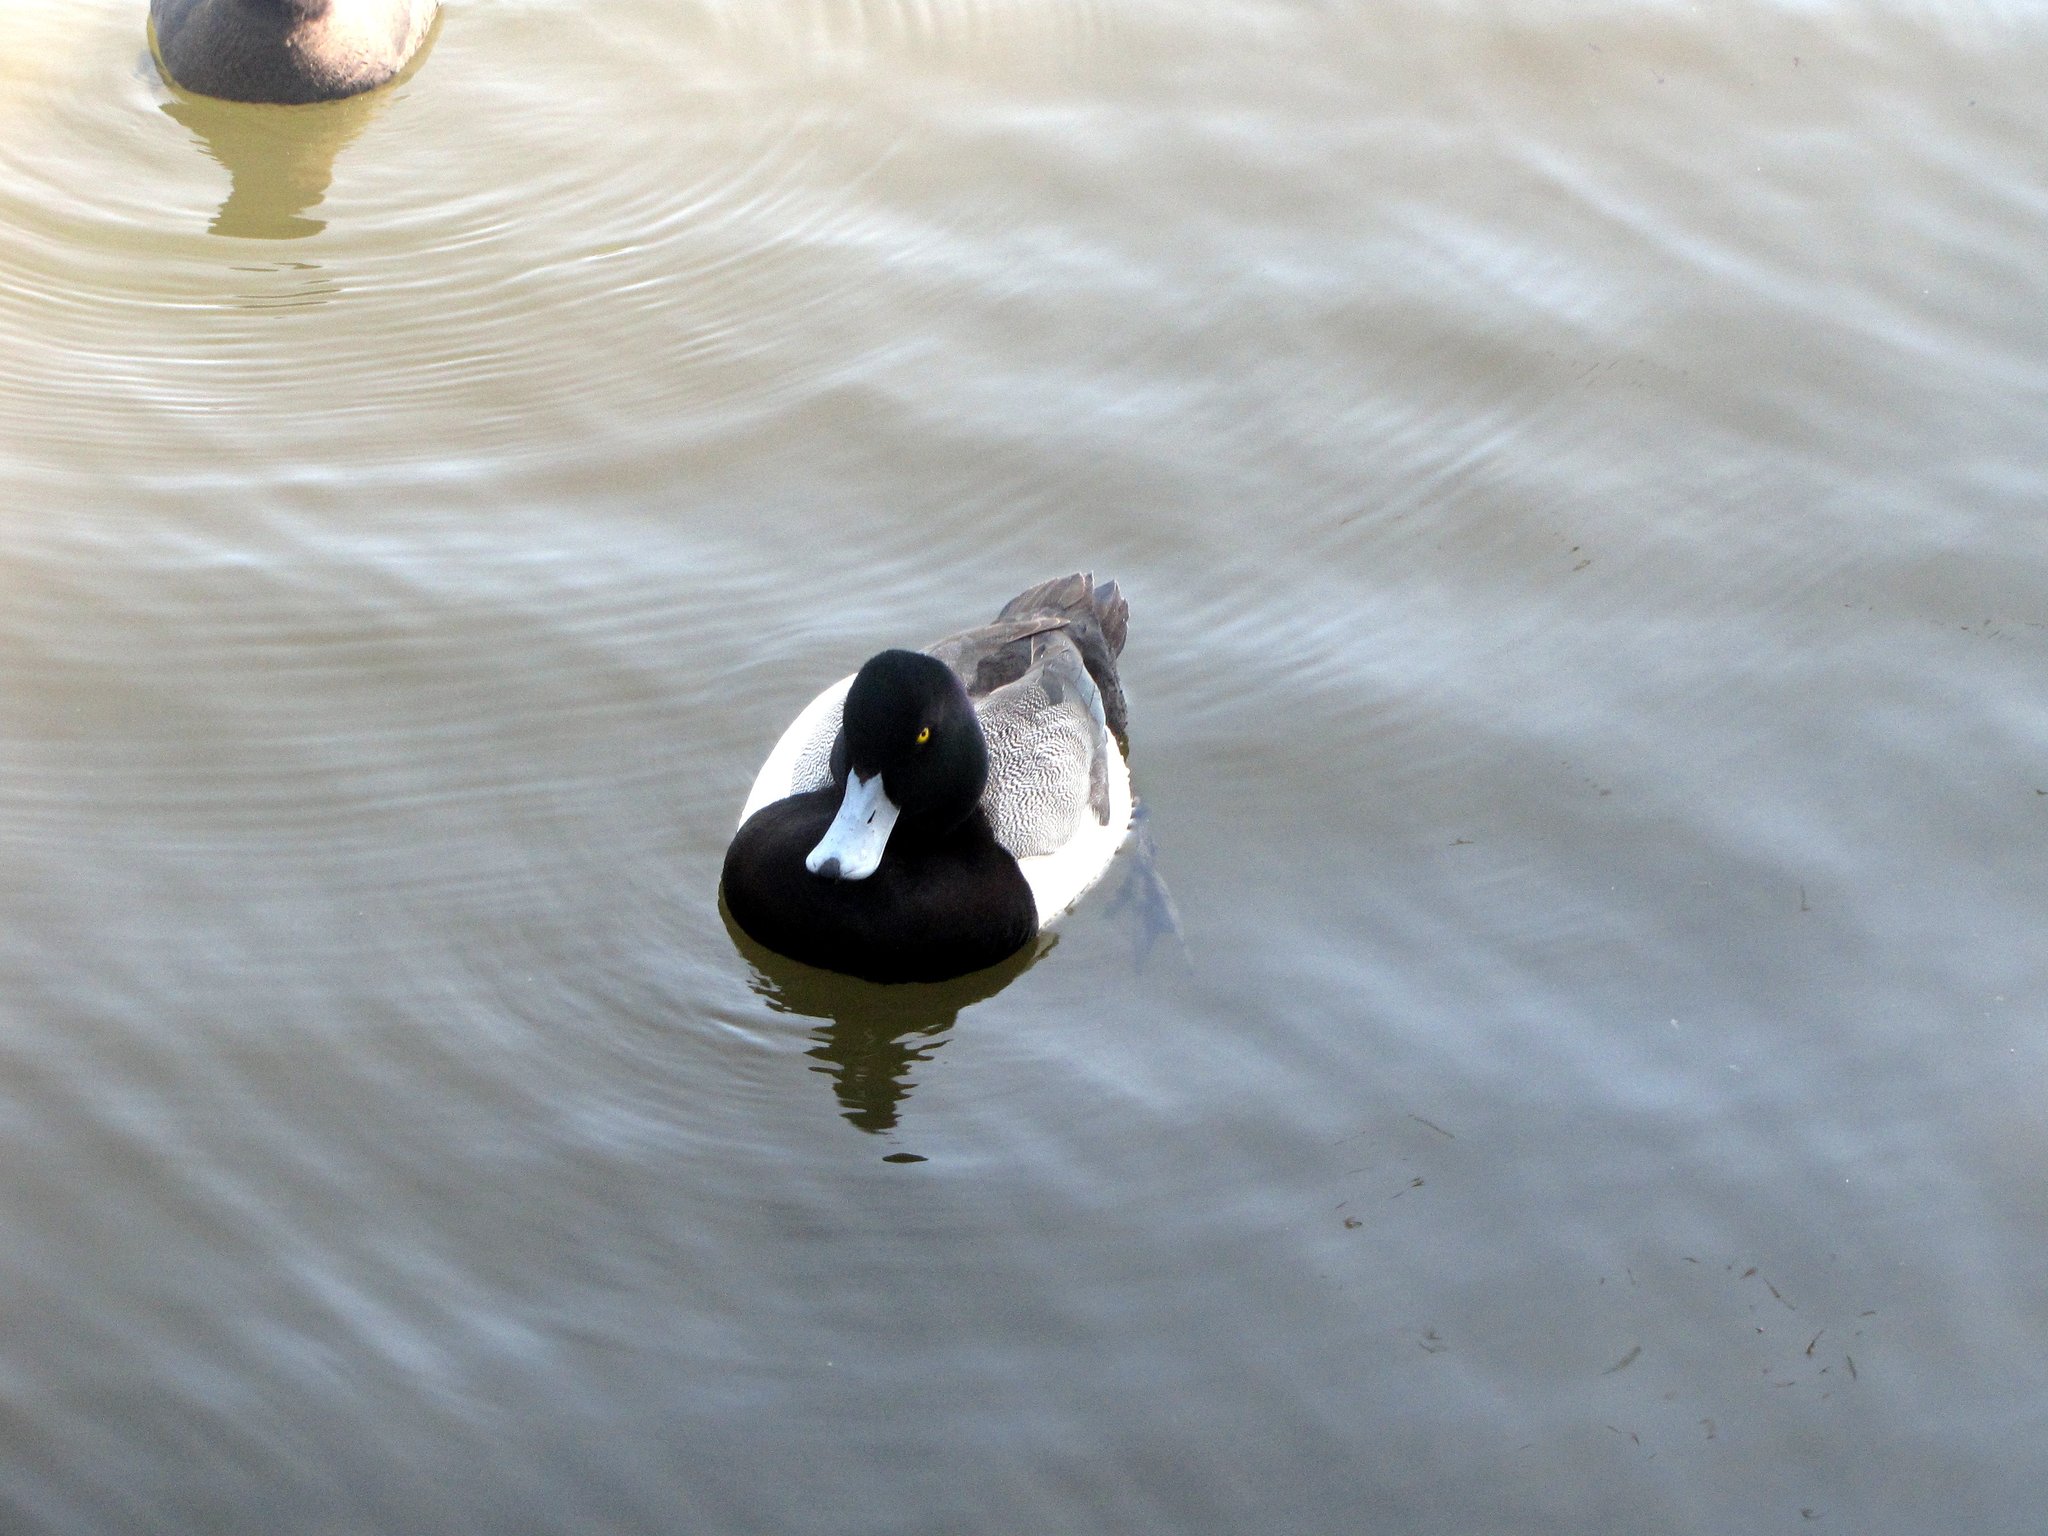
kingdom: Animalia
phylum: Chordata
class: Aves
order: Anseriformes
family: Anatidae
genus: Aythya
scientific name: Aythya marila
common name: Greater scaup
